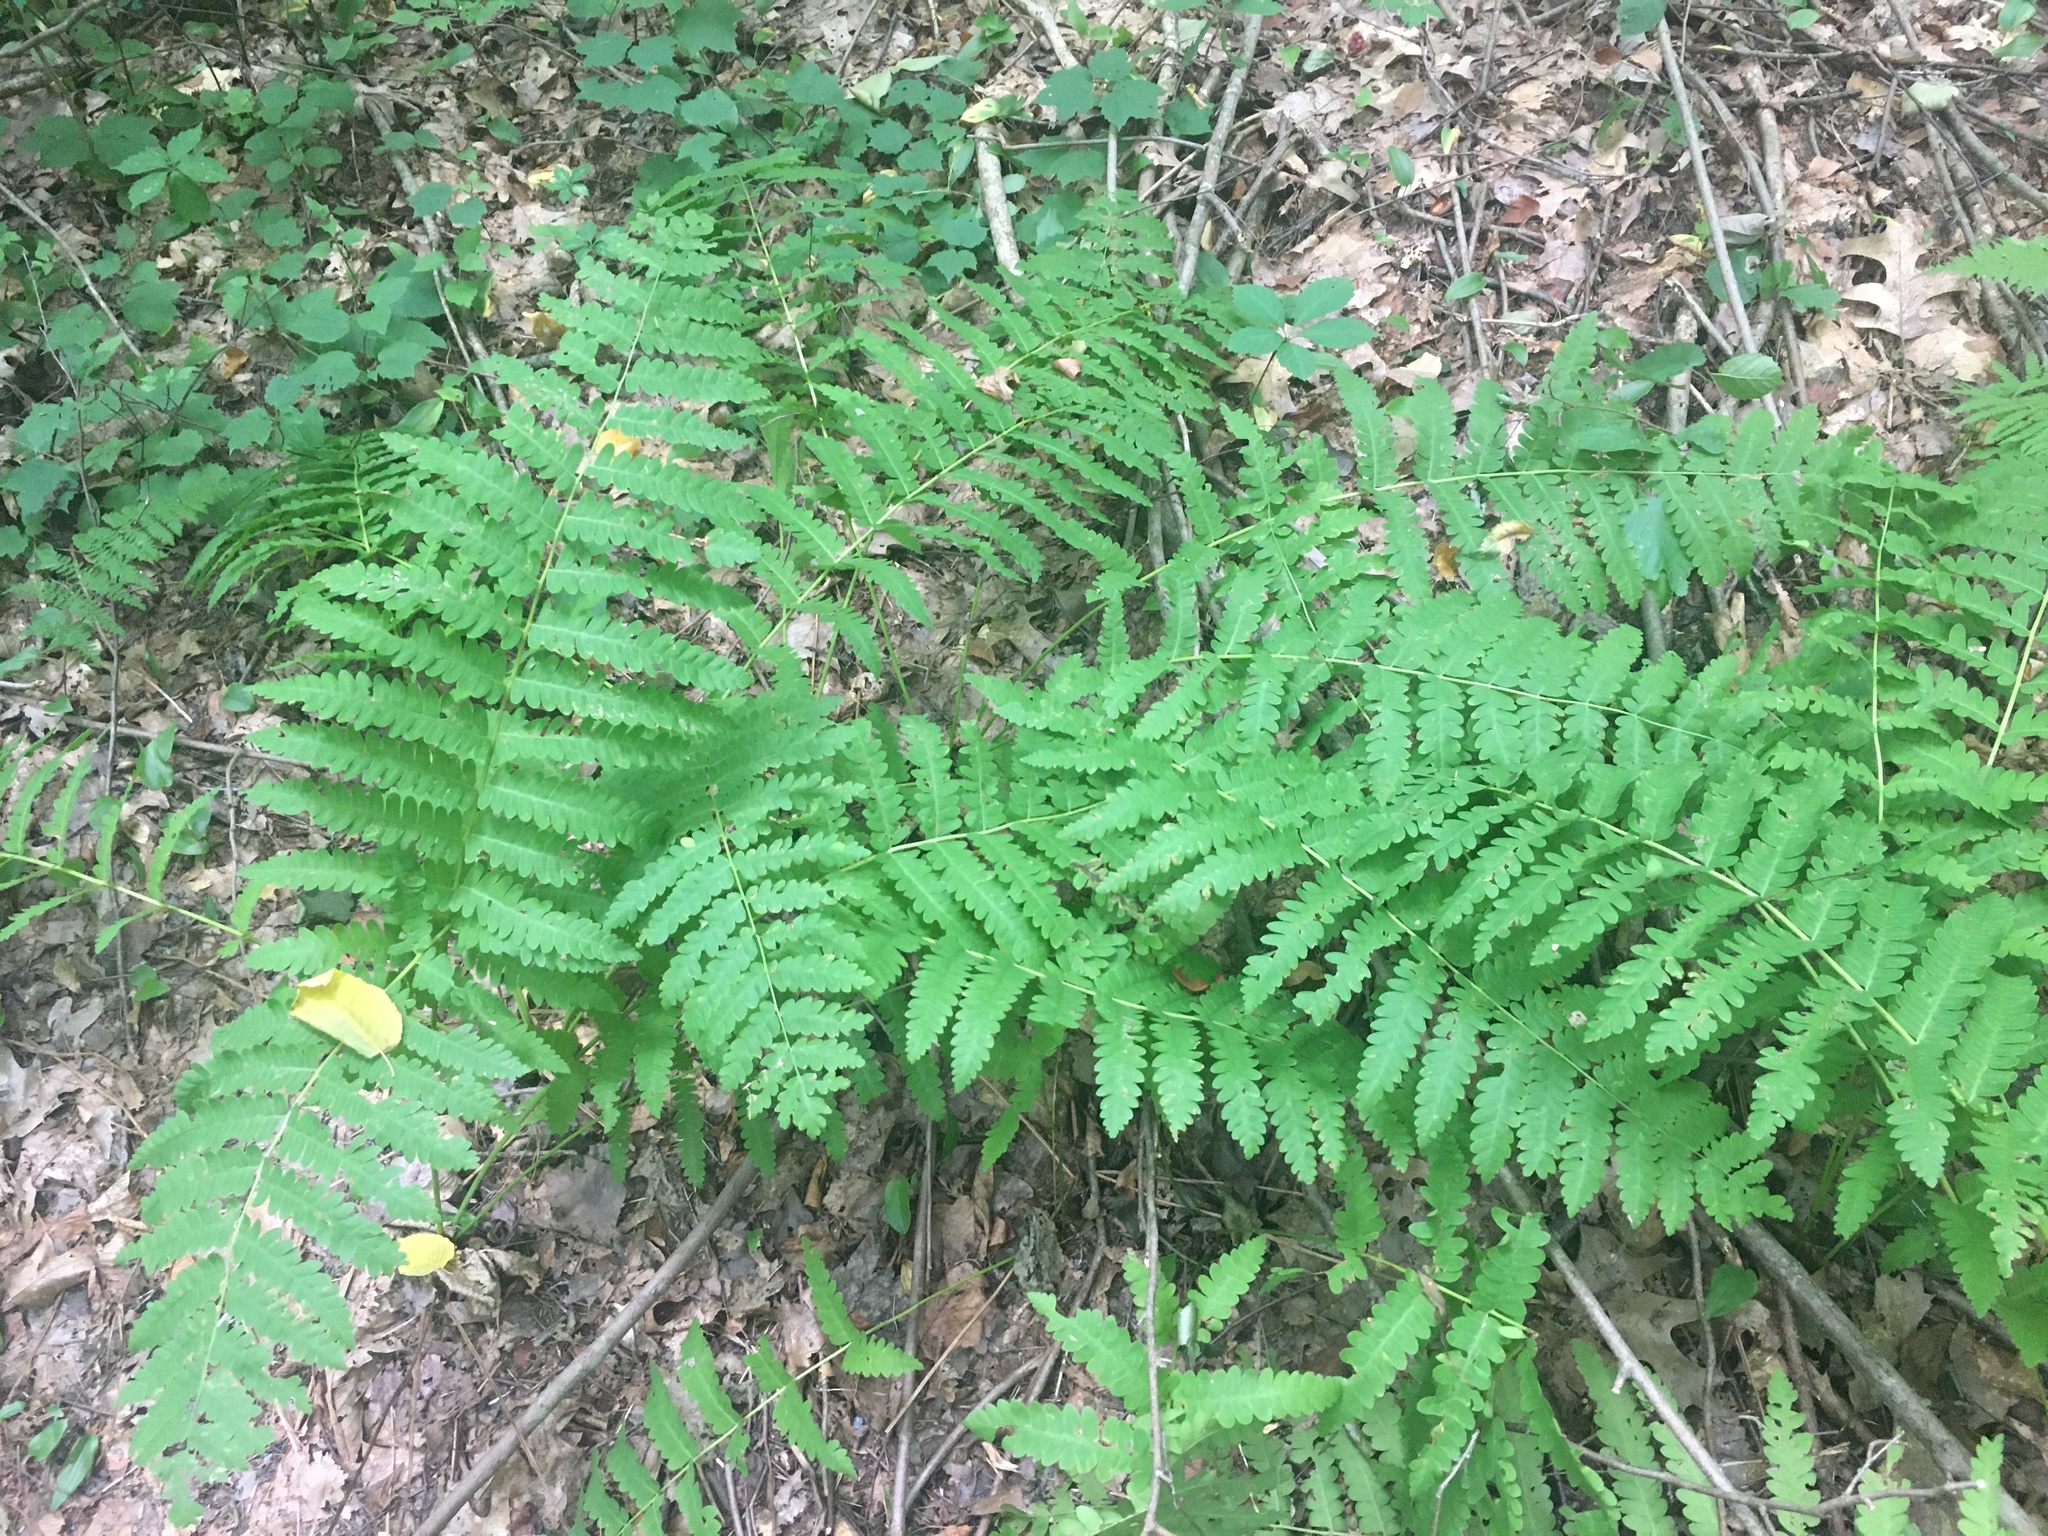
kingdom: Plantae
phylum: Tracheophyta
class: Polypodiopsida
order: Osmundales
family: Osmundaceae
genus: Claytosmunda
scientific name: Claytosmunda claytoniana
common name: Clayton's fern
